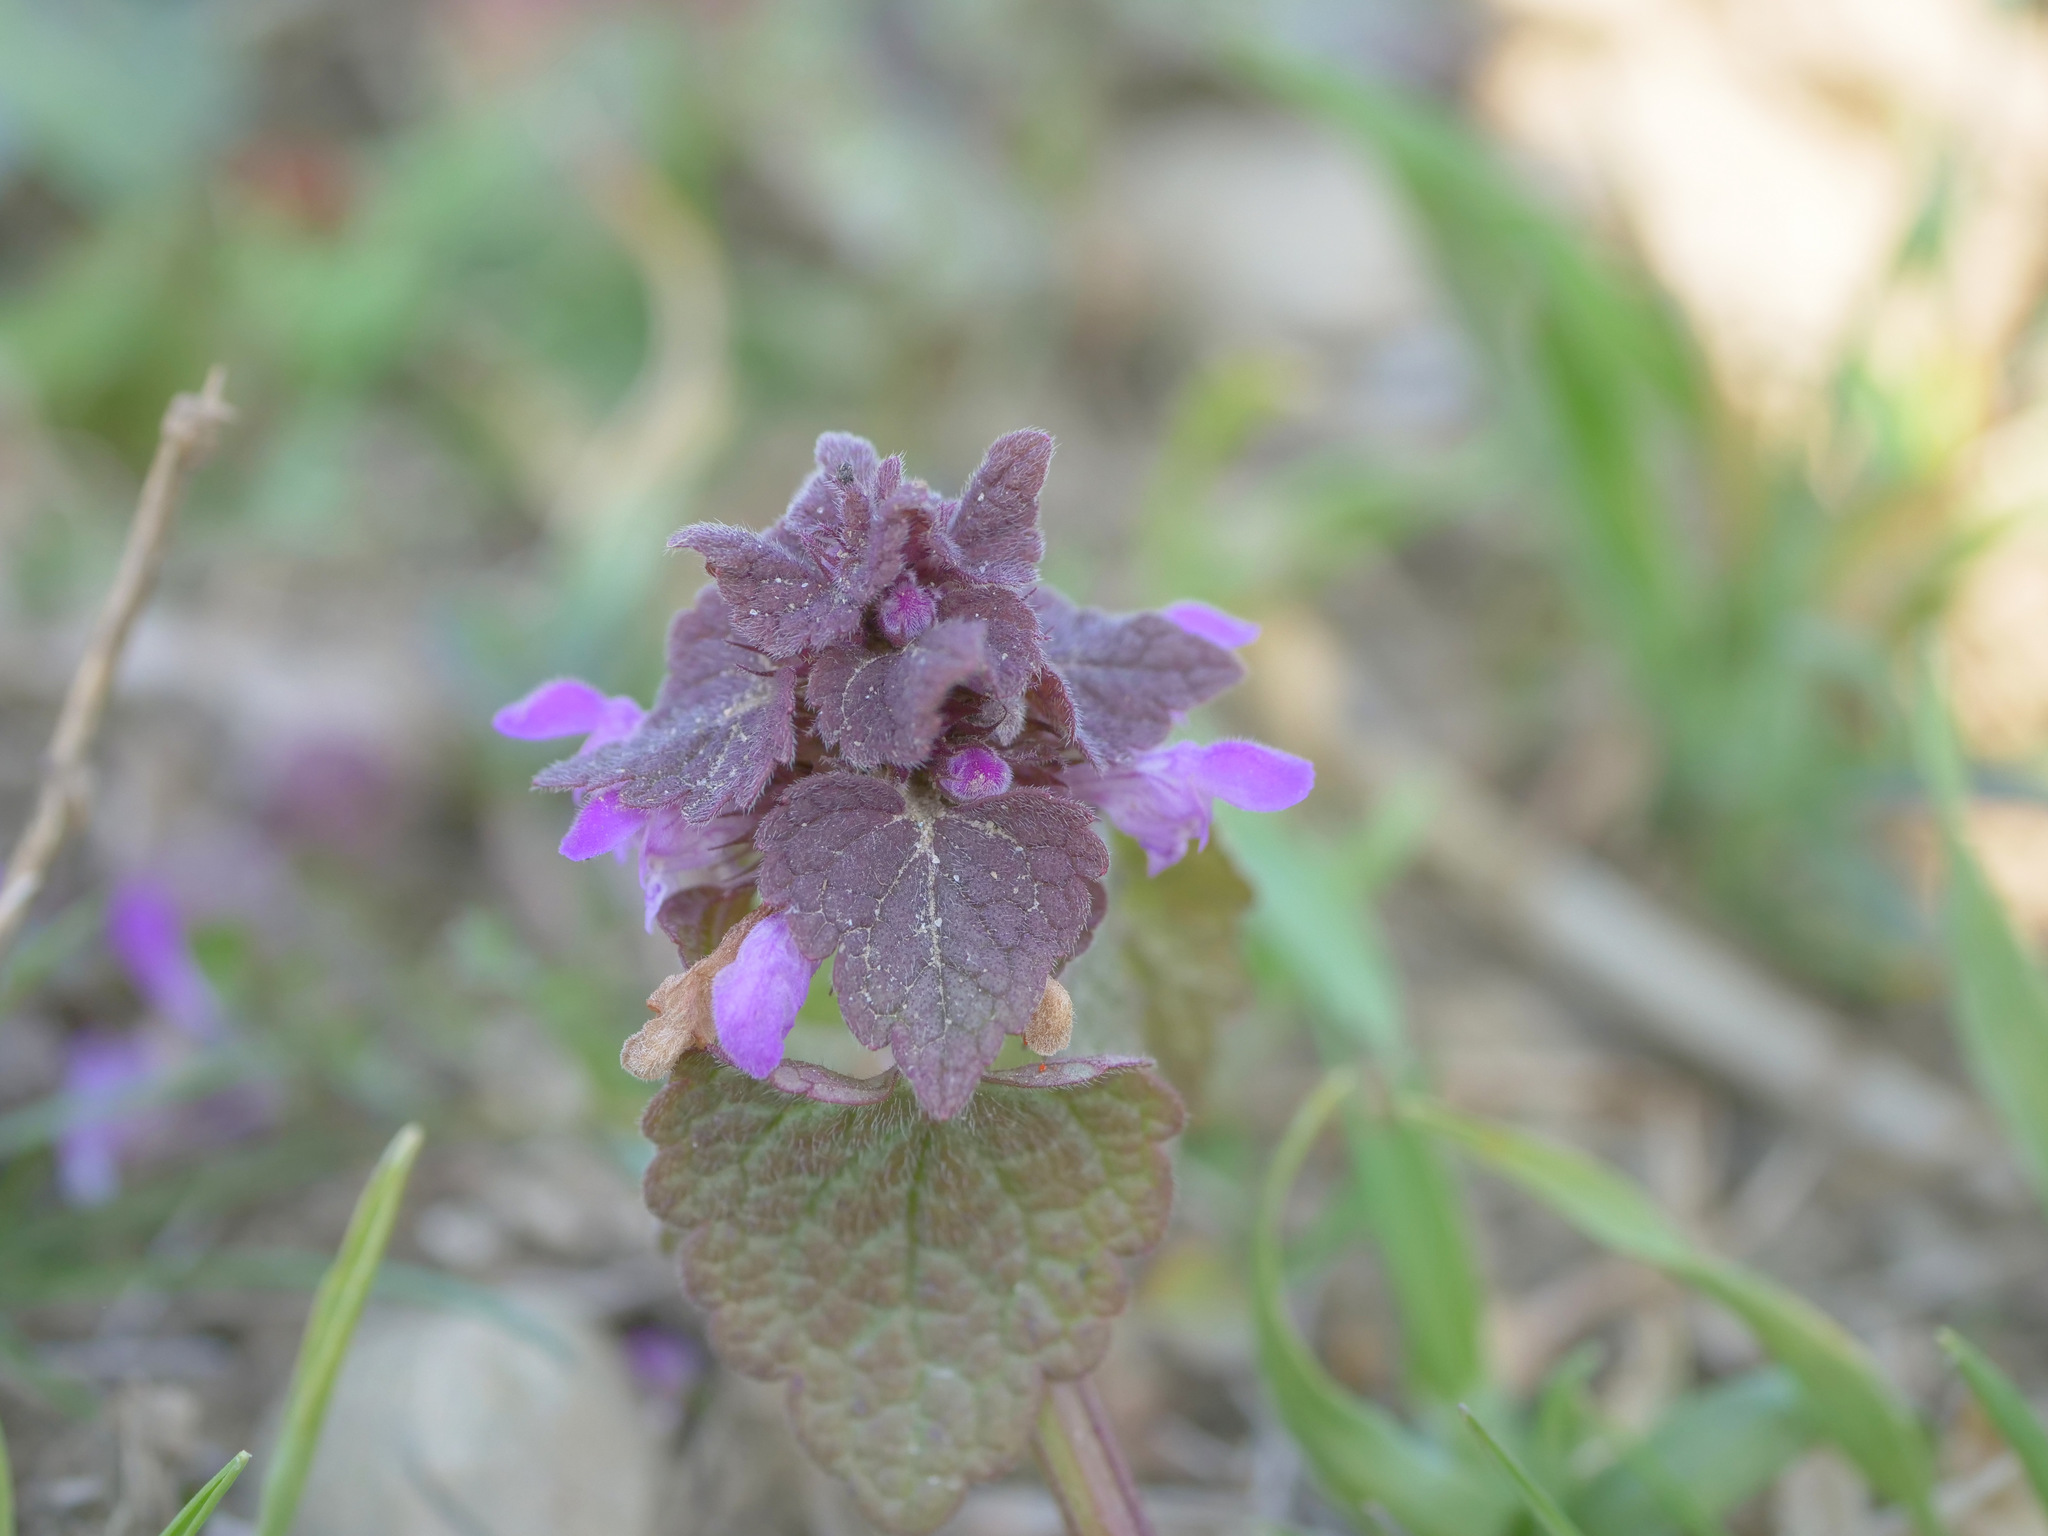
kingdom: Plantae
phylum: Tracheophyta
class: Magnoliopsida
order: Lamiales
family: Lamiaceae
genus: Lamium
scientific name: Lamium purpureum
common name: Red dead-nettle
